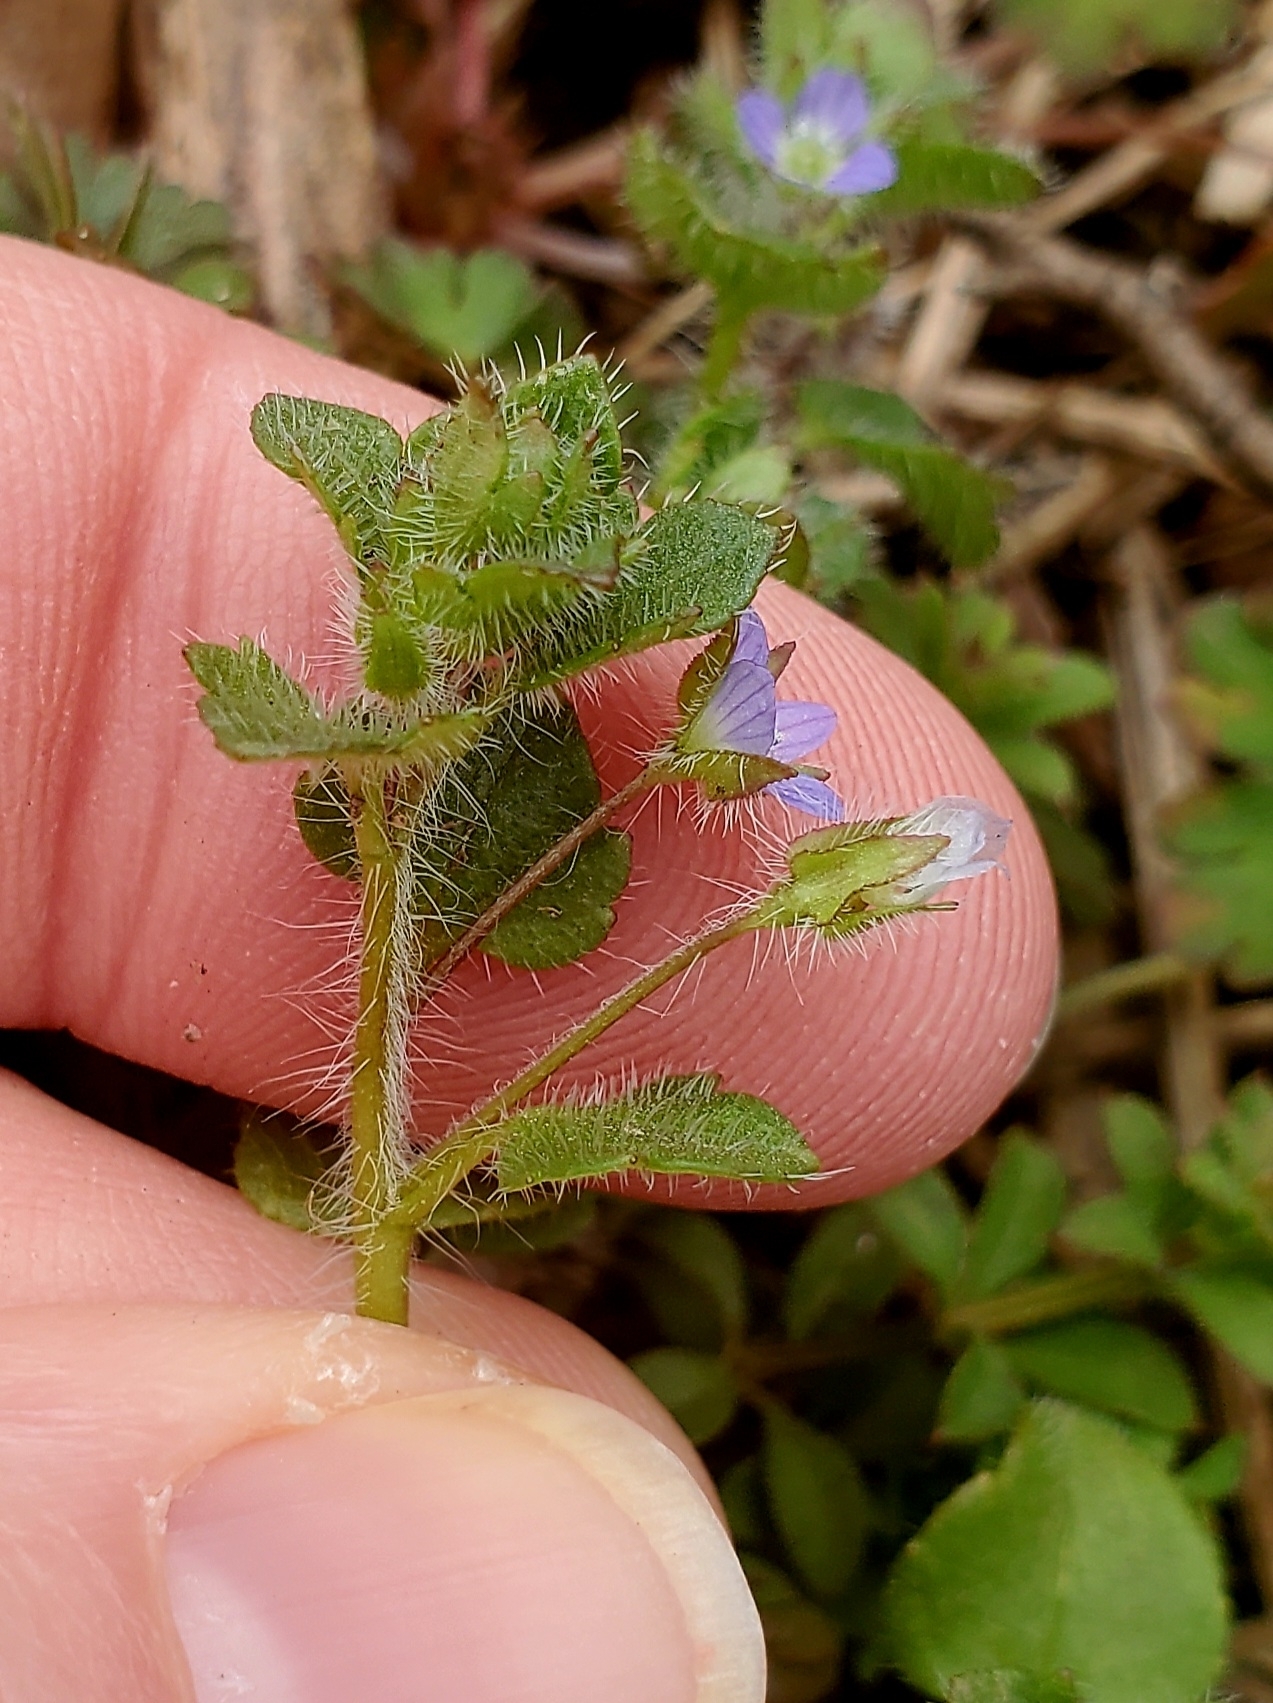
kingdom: Plantae
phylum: Tracheophyta
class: Magnoliopsida
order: Lamiales
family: Plantaginaceae
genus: Veronica
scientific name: Veronica hederifolia
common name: Ivy-leaved speedwell
